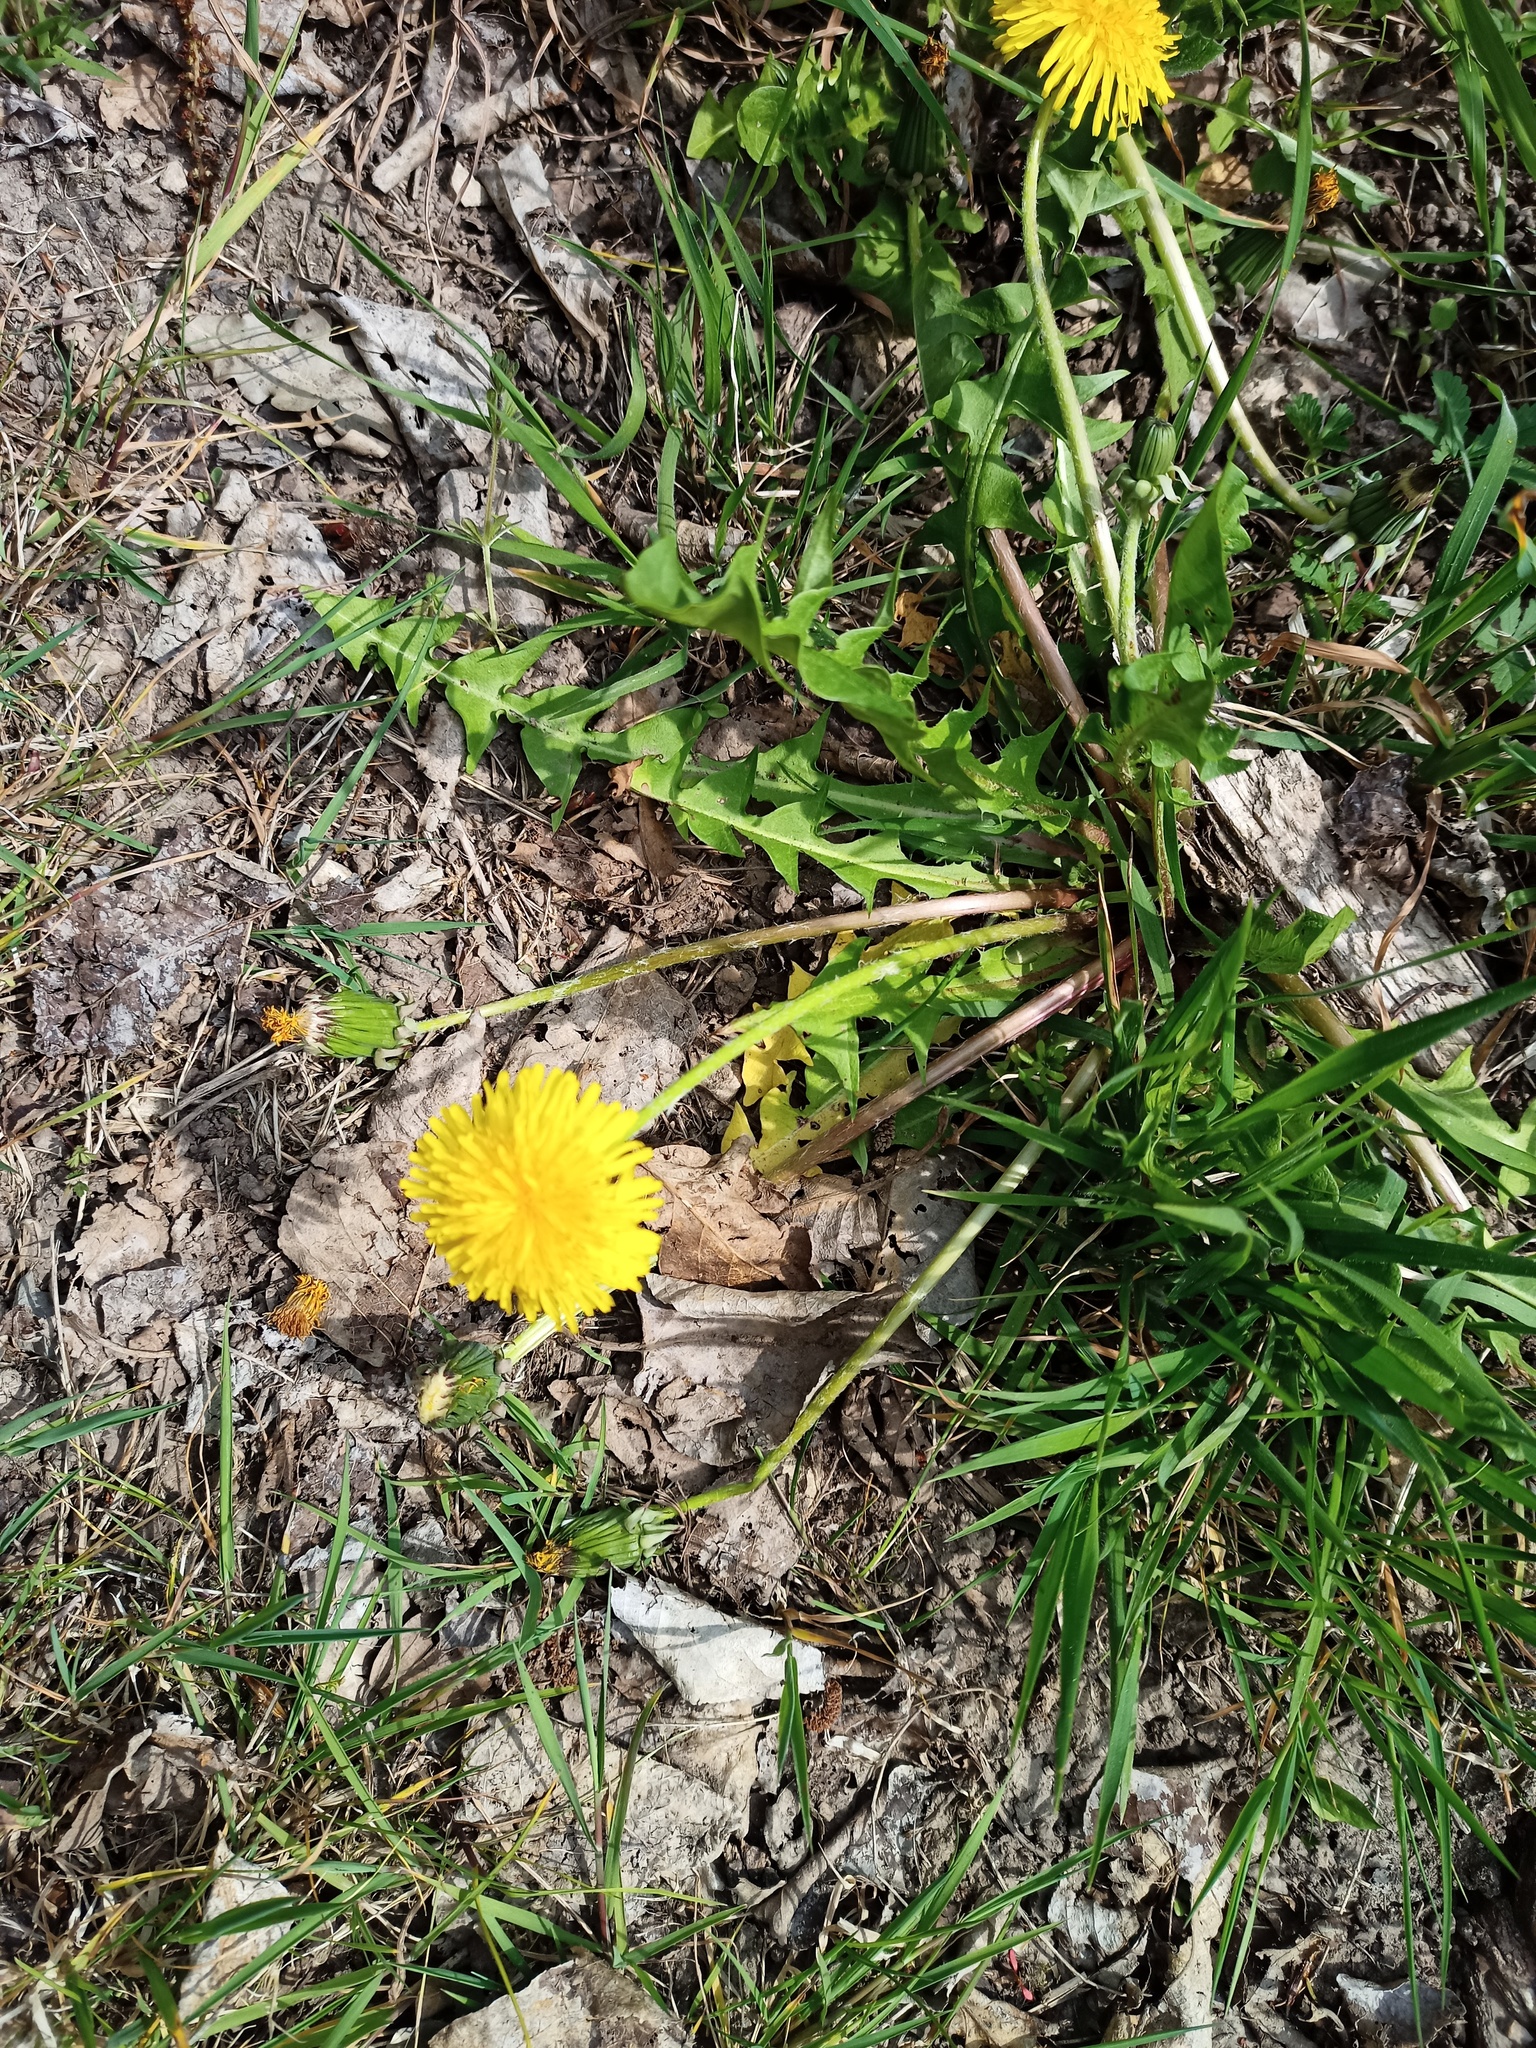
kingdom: Plantae
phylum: Tracheophyta
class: Magnoliopsida
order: Asterales
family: Asteraceae
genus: Taraxacum
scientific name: Taraxacum officinale
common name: Common dandelion
